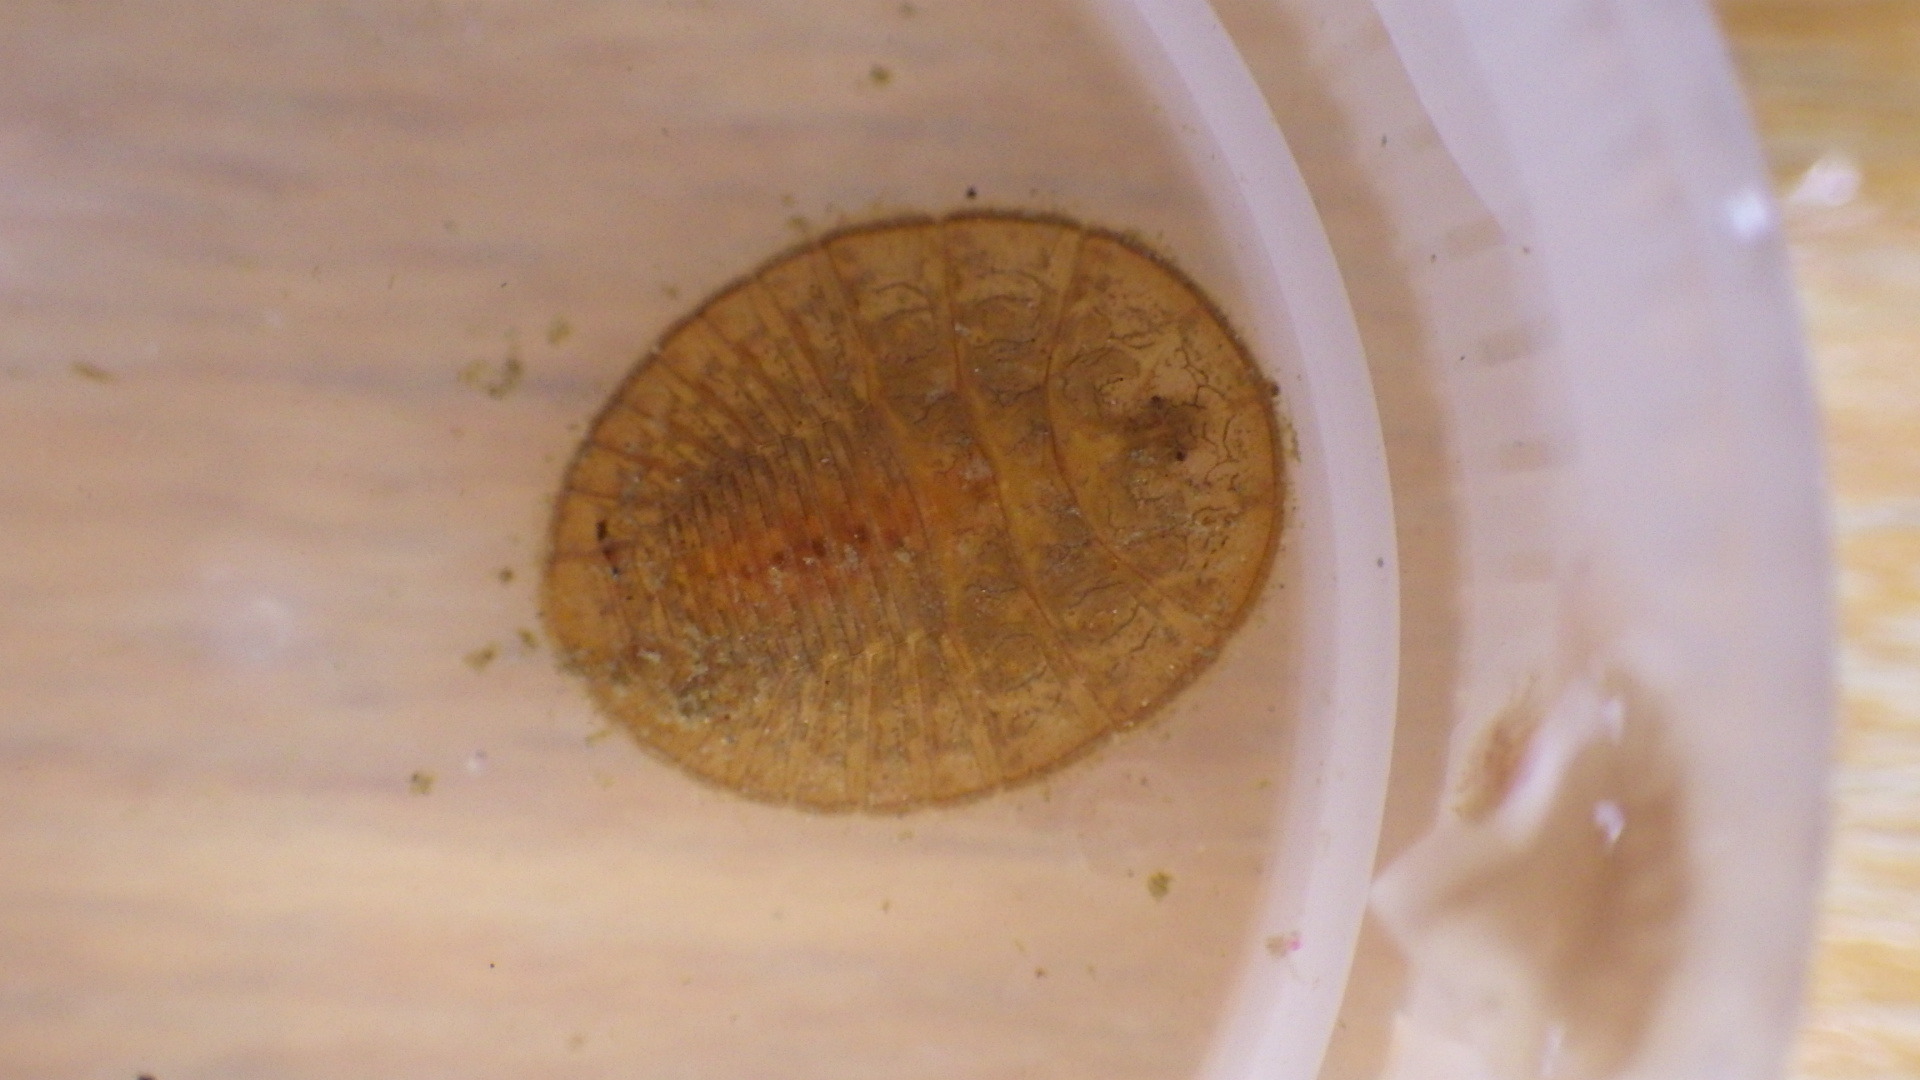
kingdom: Animalia
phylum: Arthropoda
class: Insecta
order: Coleoptera
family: Psephenidae
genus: Psephenus
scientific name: Psephenus herricki
